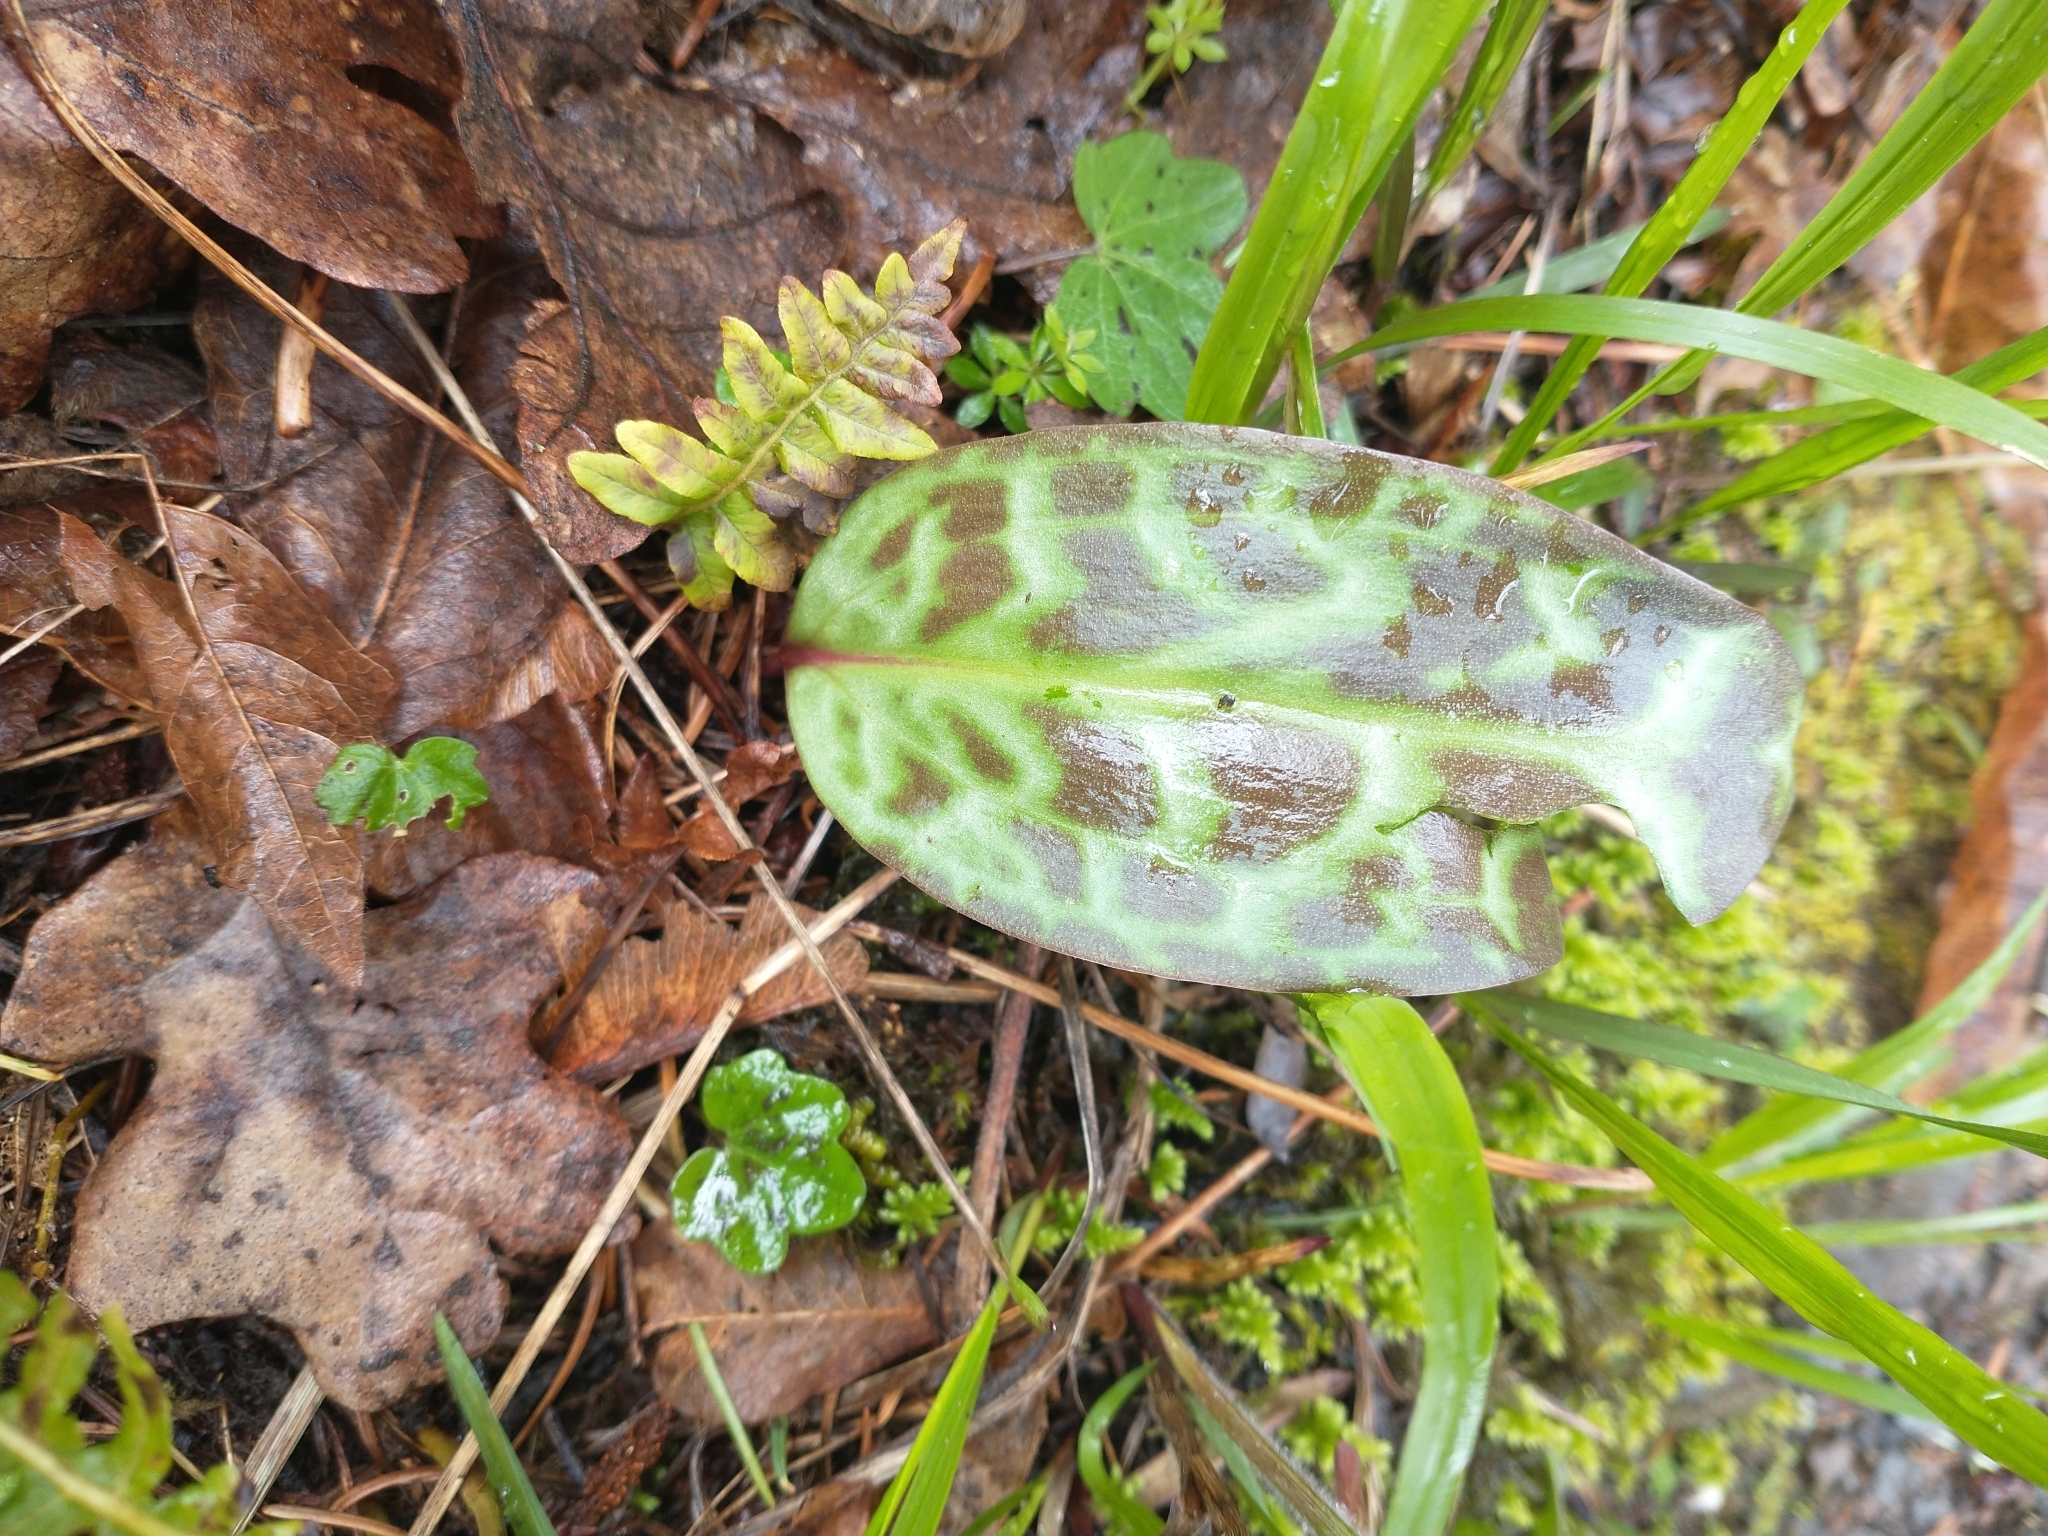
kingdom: Plantae
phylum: Tracheophyta
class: Liliopsida
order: Liliales
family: Liliaceae
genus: Erythronium
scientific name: Erythronium oregonum
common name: Giant adder's-tongue
